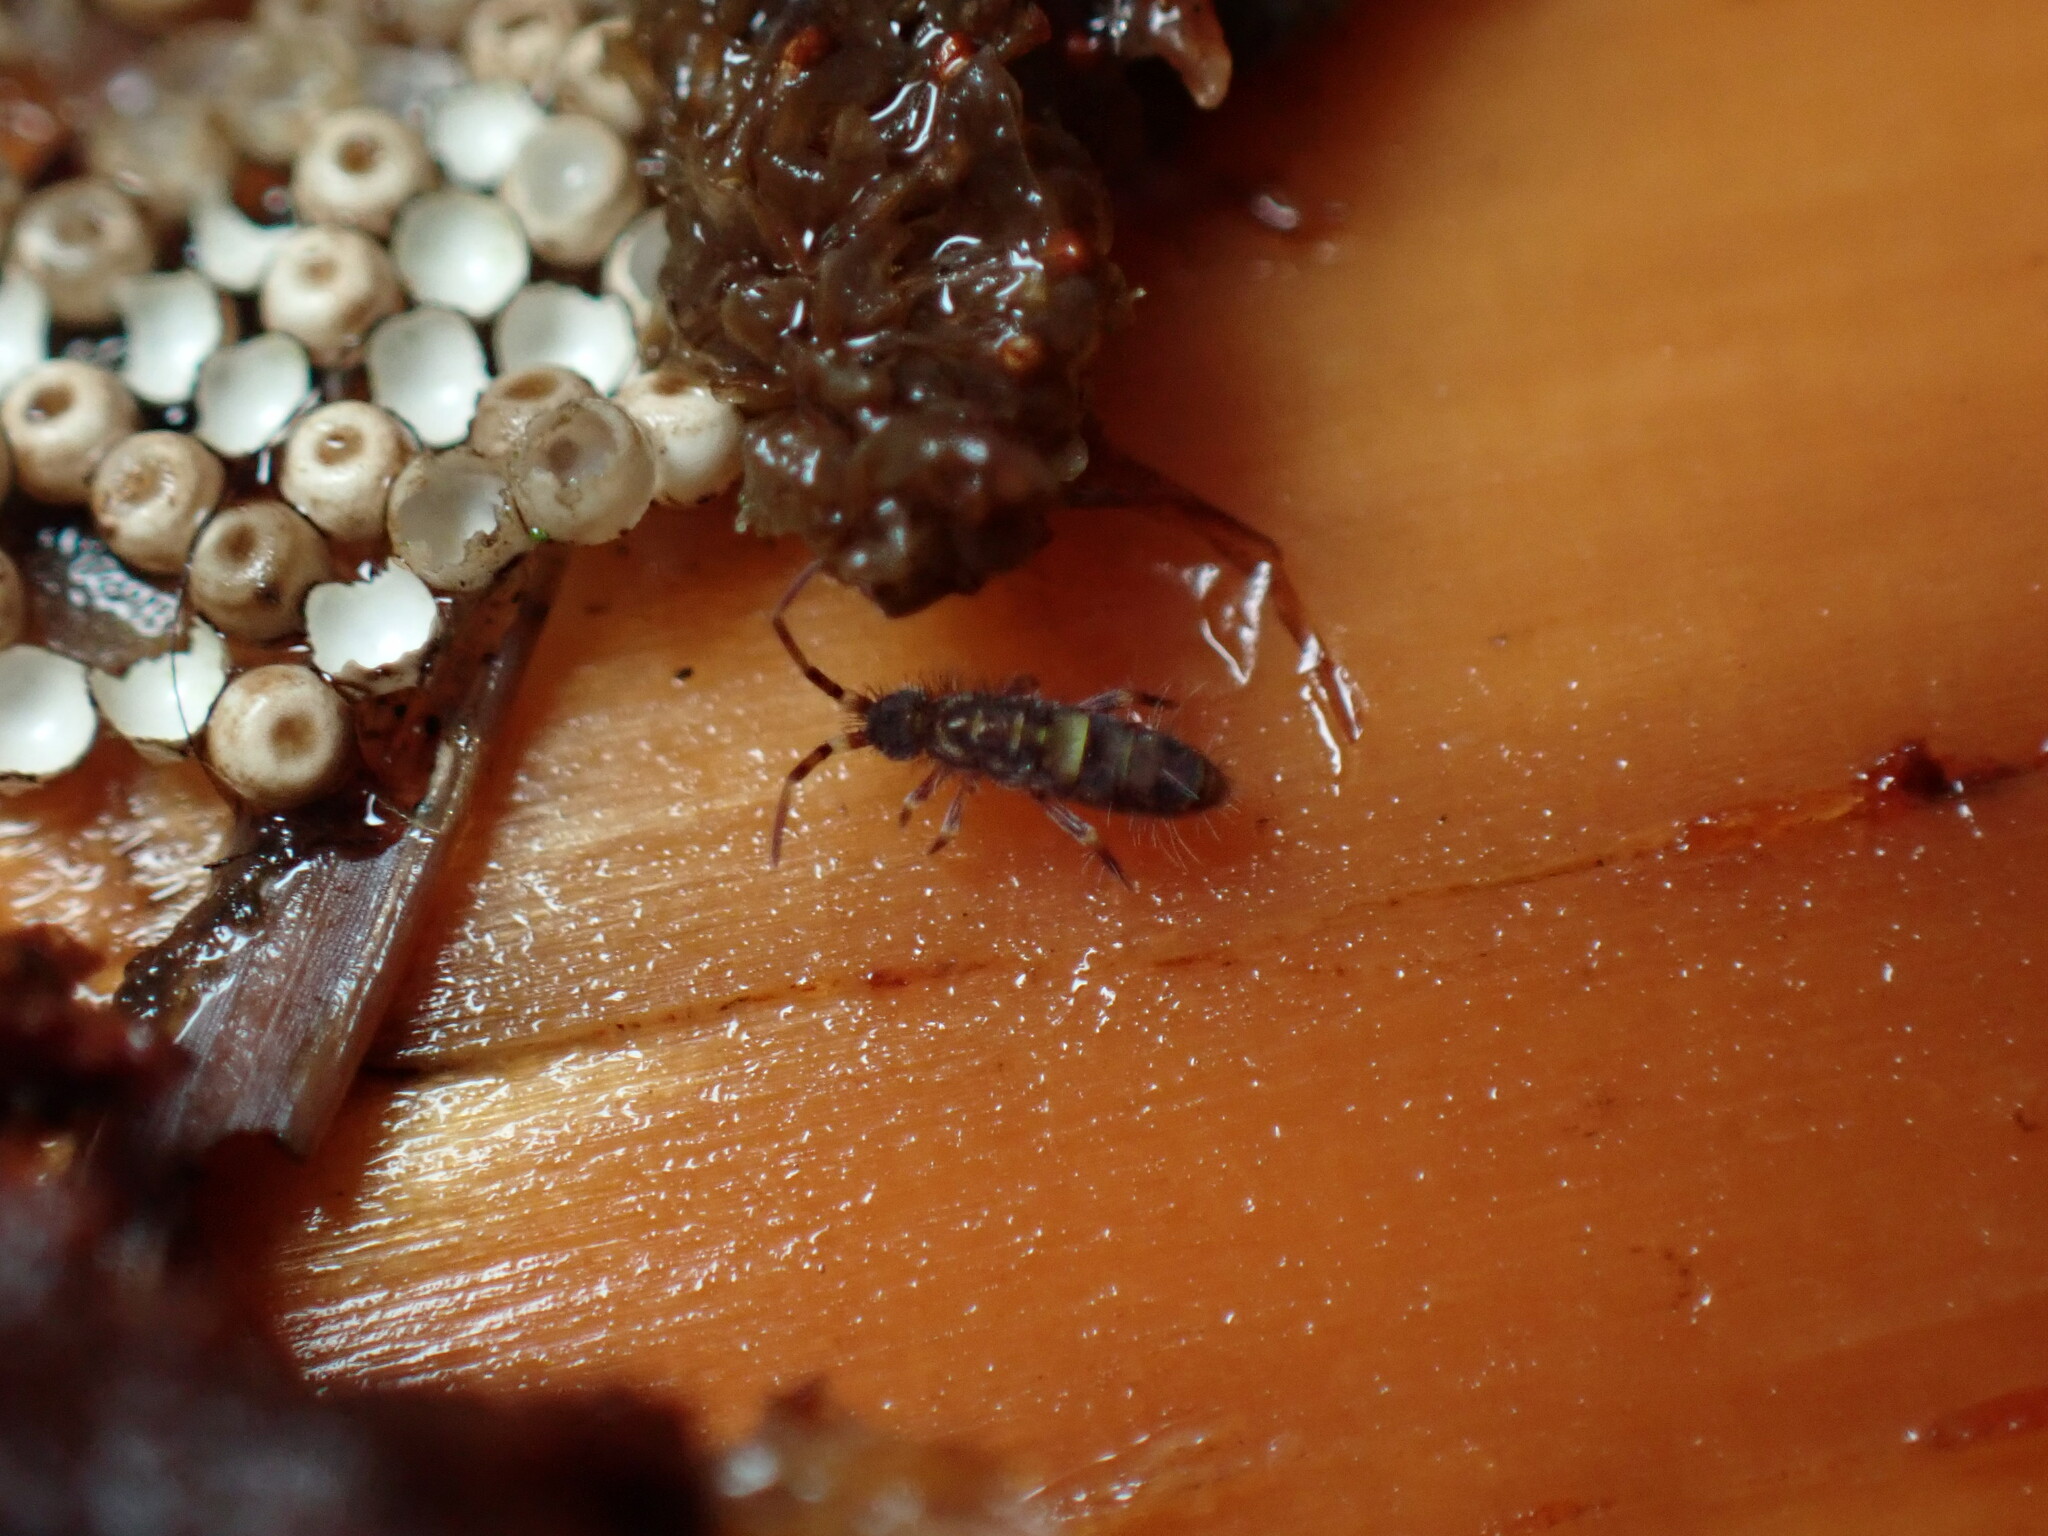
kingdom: Animalia
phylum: Arthropoda
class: Collembola
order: Entomobryomorpha
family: Orchesellidae
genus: Orchesella
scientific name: Orchesella cincta
